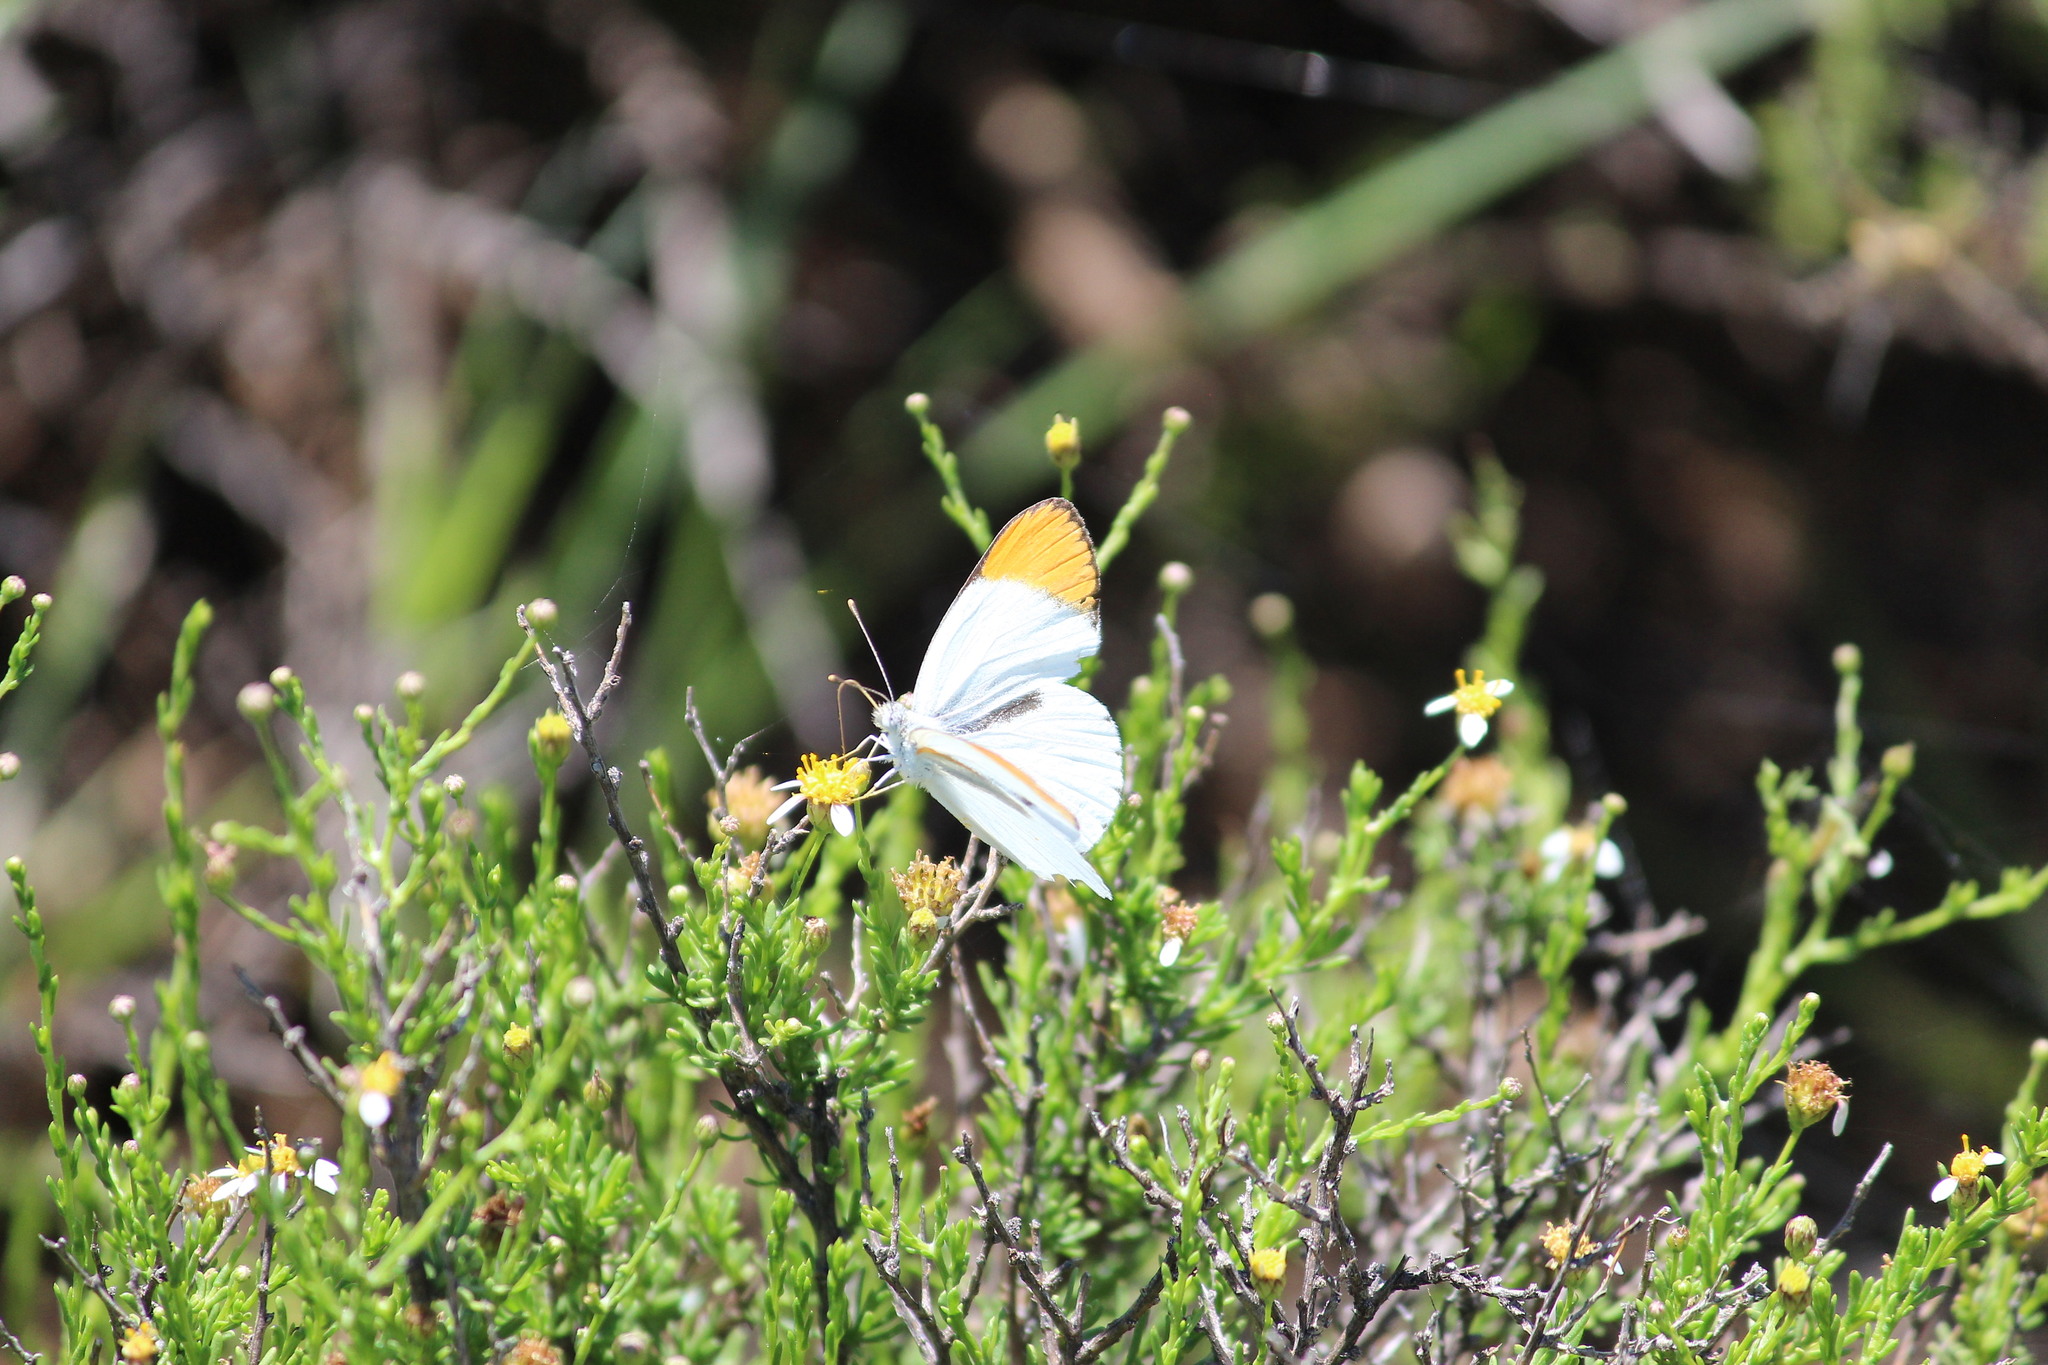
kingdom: Animalia
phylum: Arthropoda
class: Insecta
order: Lepidoptera
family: Pieridae
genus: Colotis
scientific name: Colotis evenina
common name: Common orange tip
